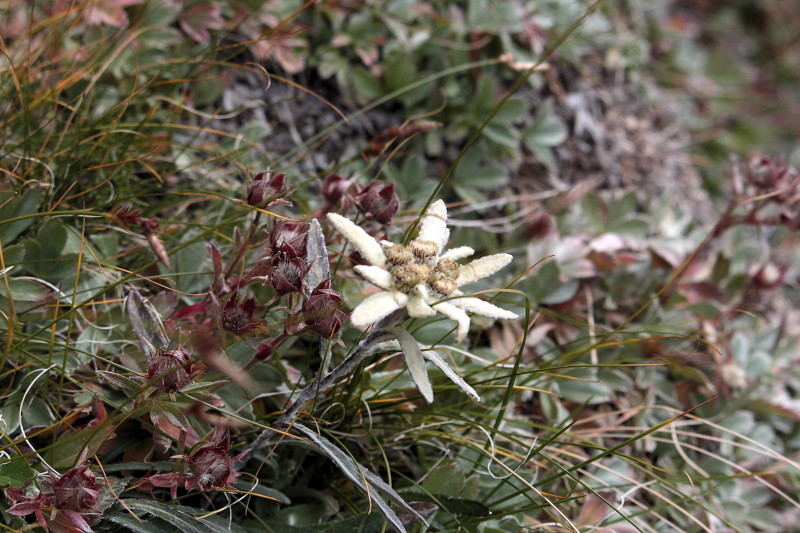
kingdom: Plantae
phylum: Tracheophyta
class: Magnoliopsida
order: Asterales
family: Asteraceae
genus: Leontopodium
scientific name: Leontopodium nivale
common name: Edelweiss
